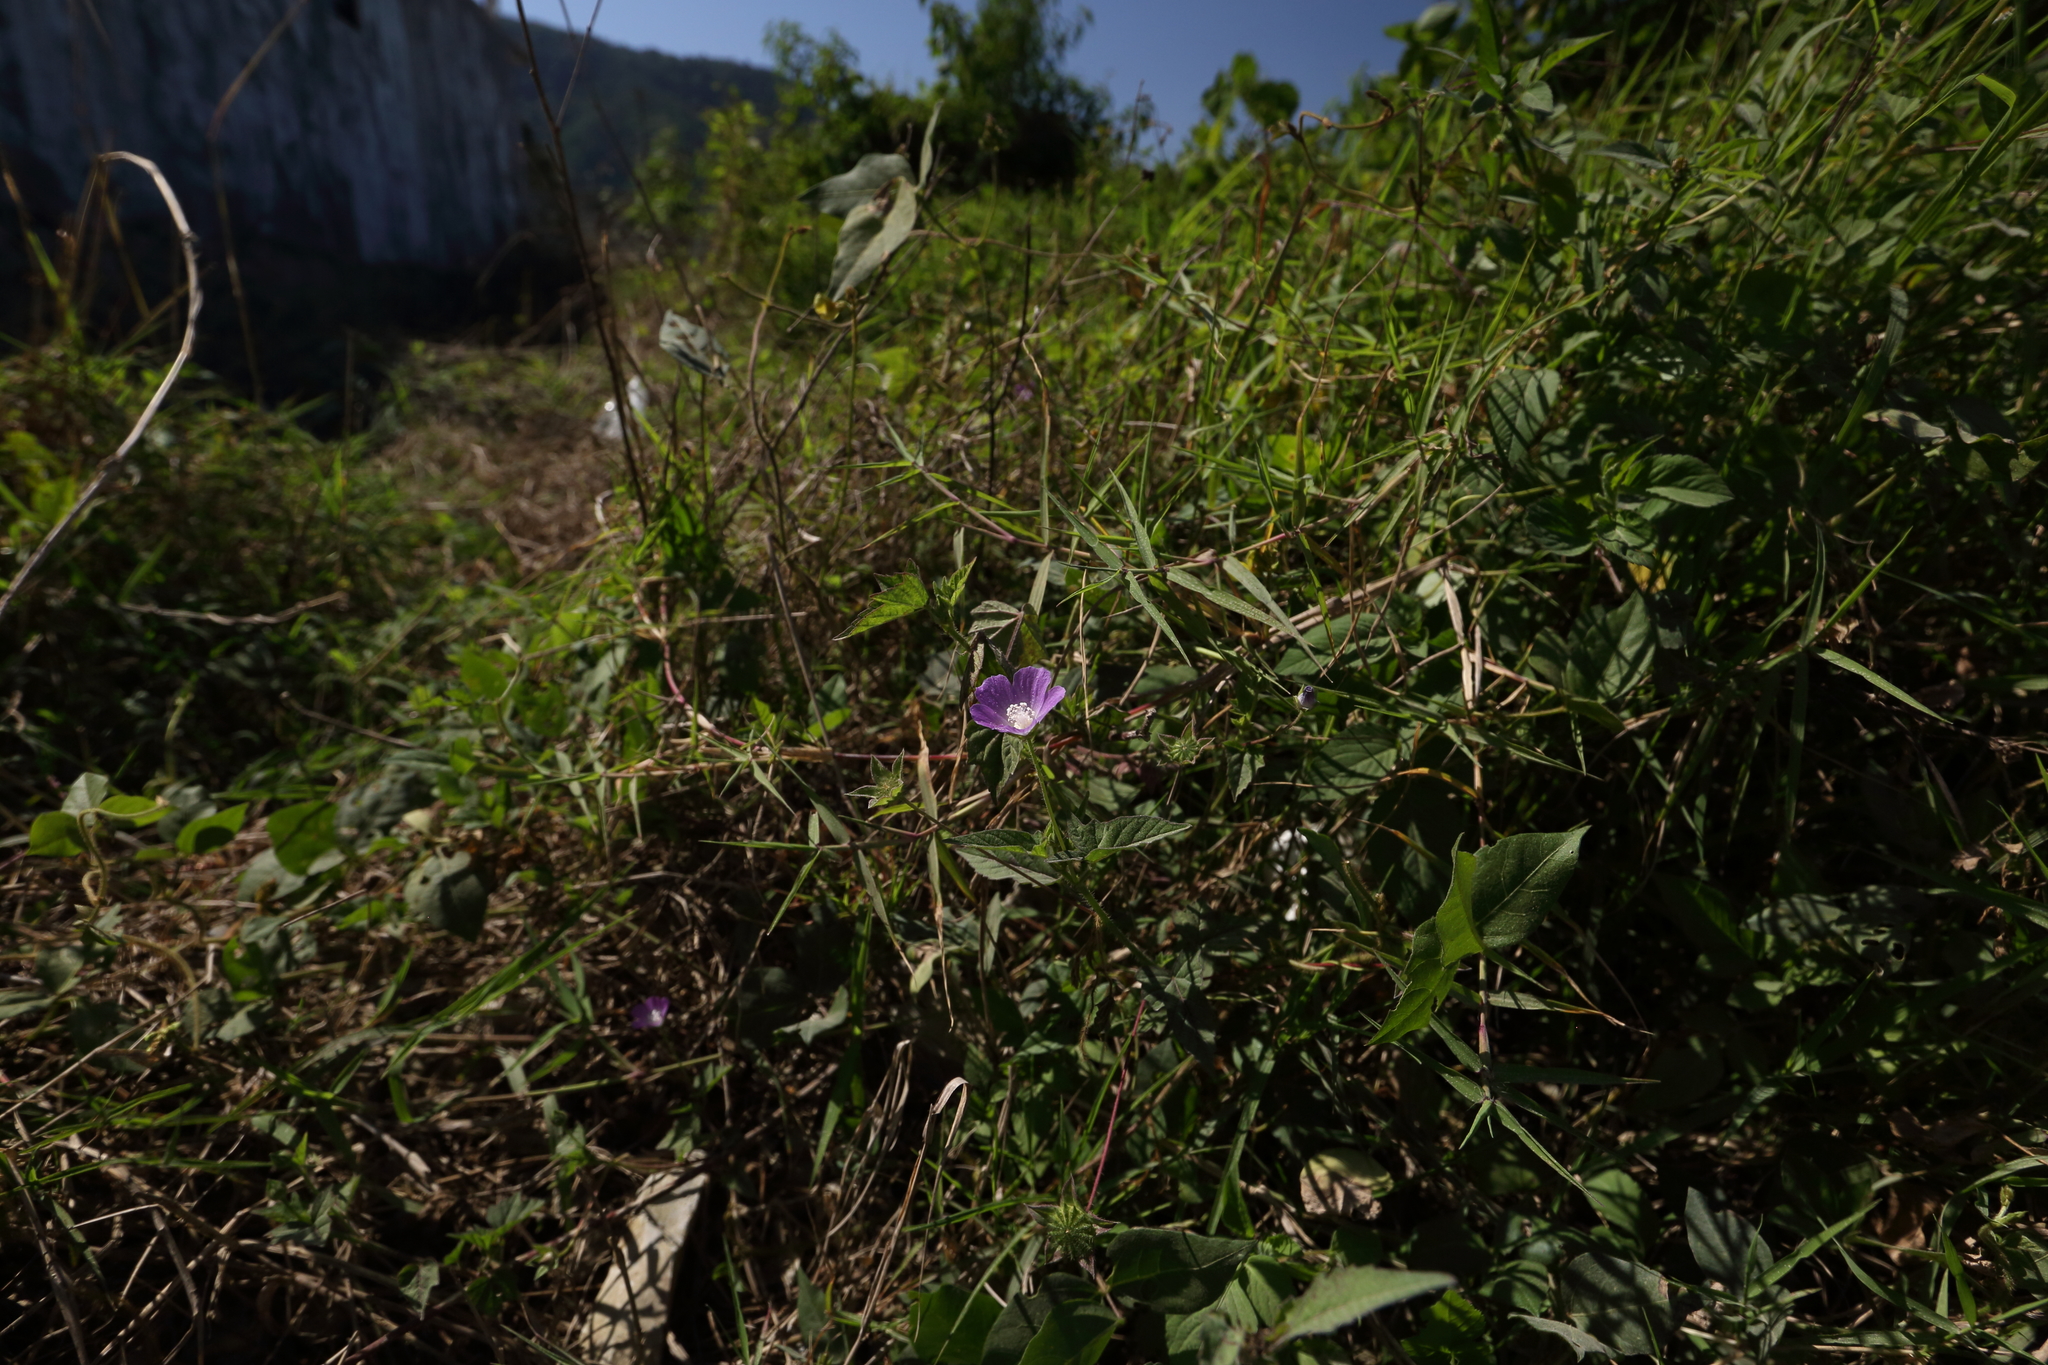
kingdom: Plantae
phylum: Tracheophyta
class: Magnoliopsida
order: Malvales
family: Malvaceae
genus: Anoda
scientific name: Anoda cristata
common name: Spurred anoda
